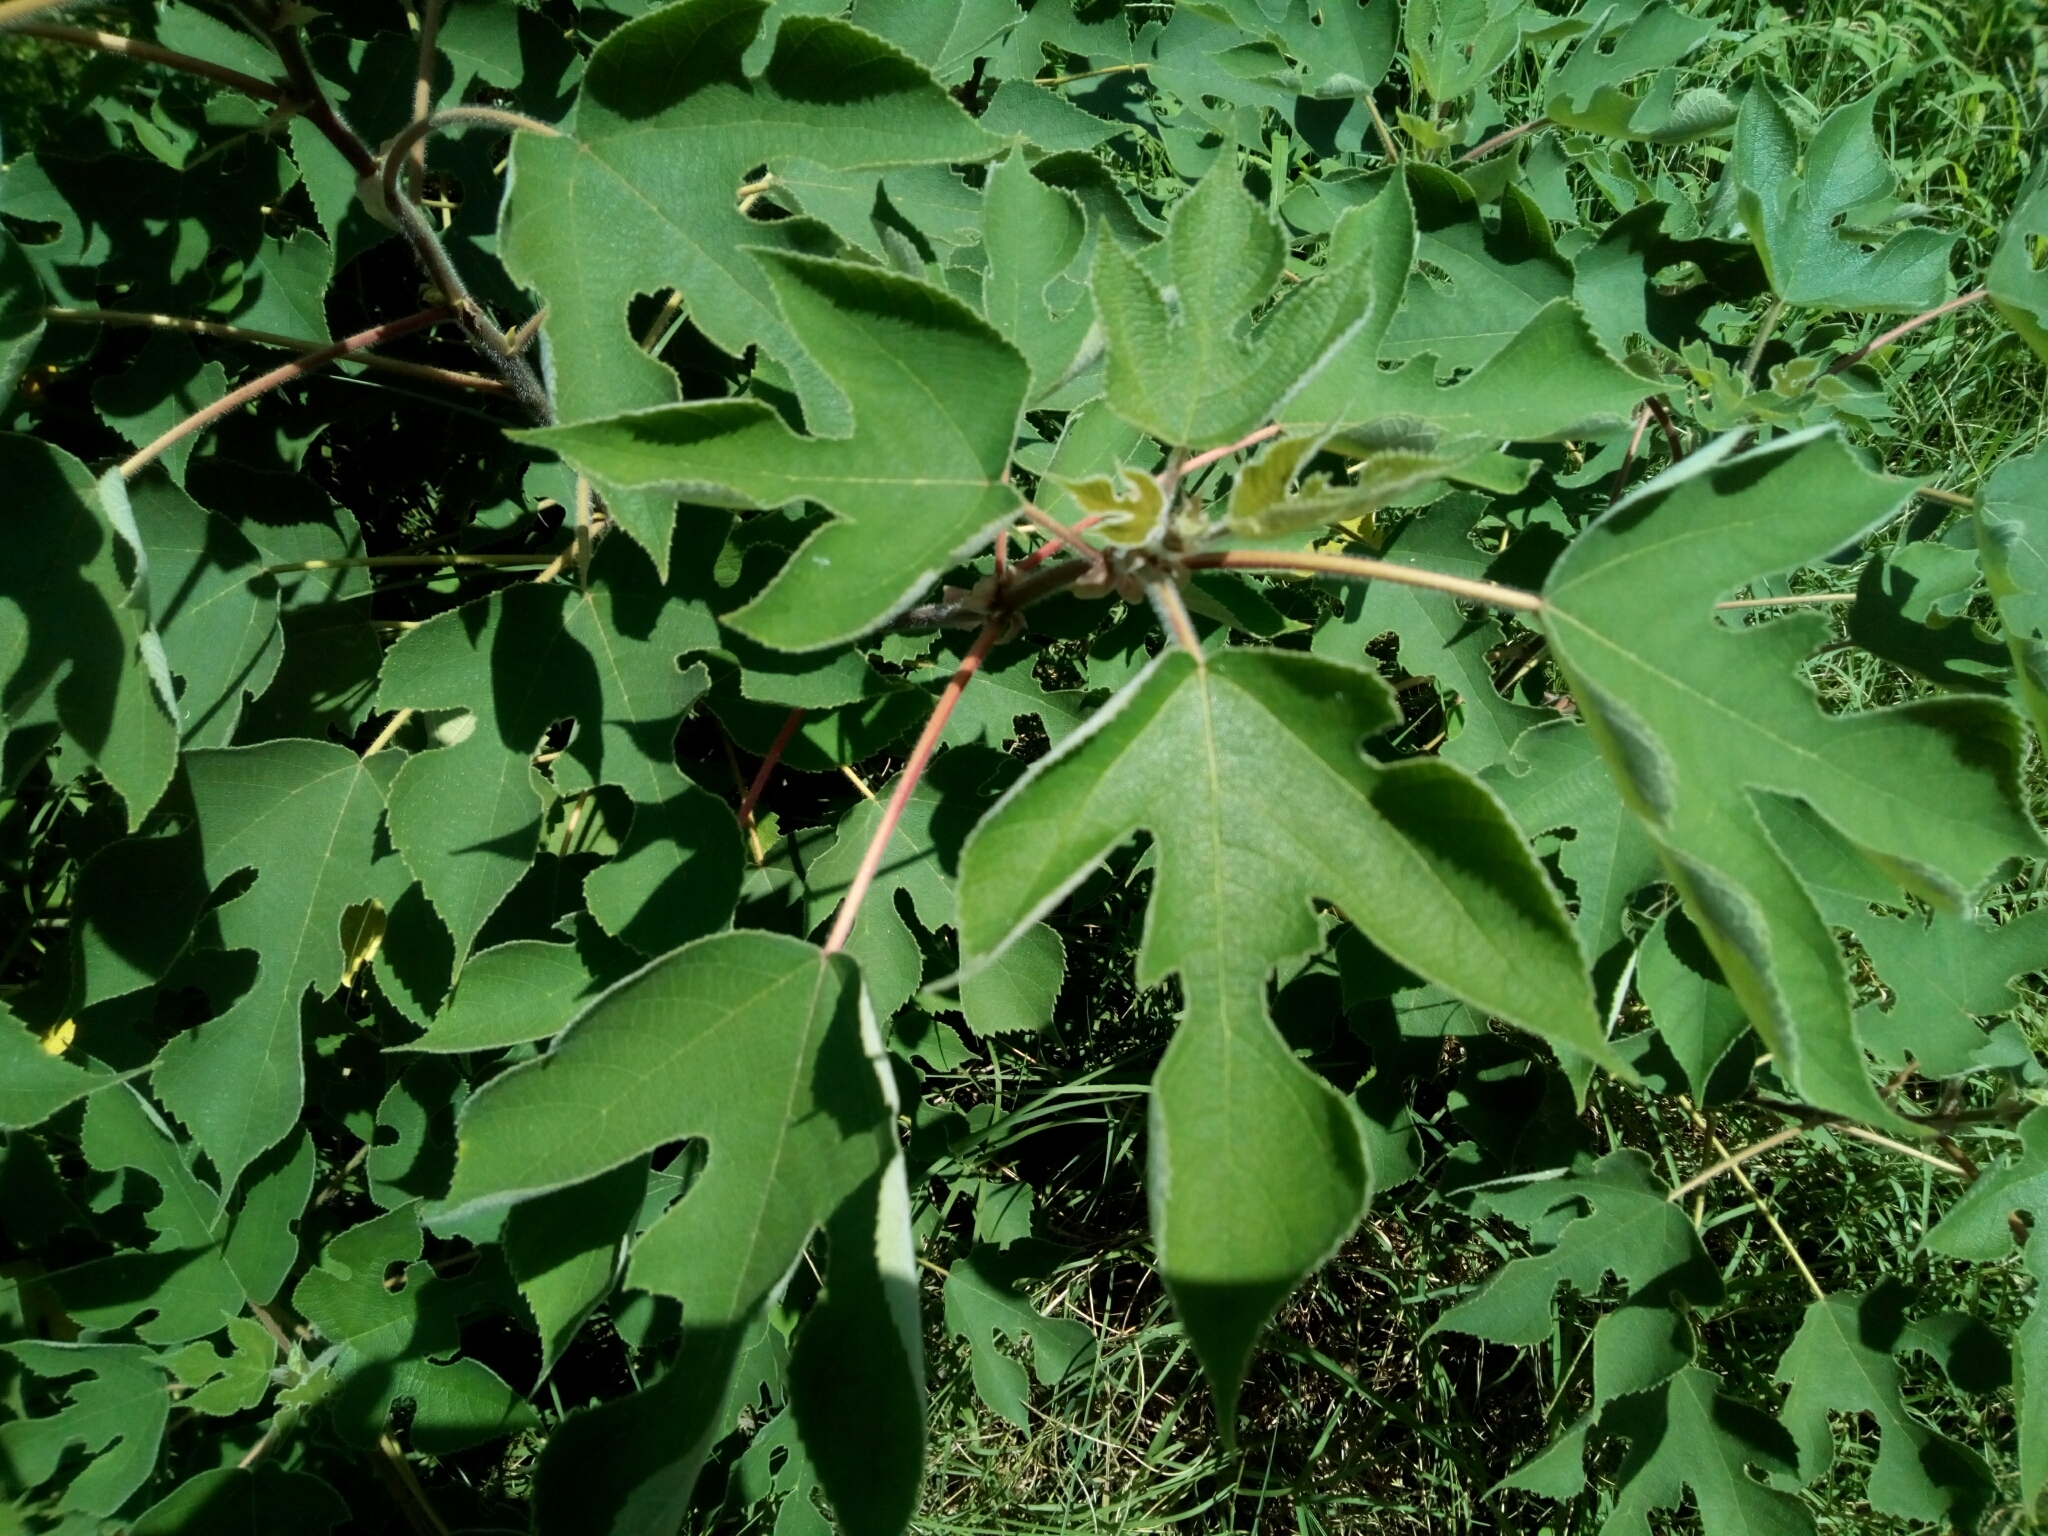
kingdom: Plantae
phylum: Tracheophyta
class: Magnoliopsida
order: Rosales
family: Moraceae
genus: Broussonetia
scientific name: Broussonetia papyrifera
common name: Paper mulberry
